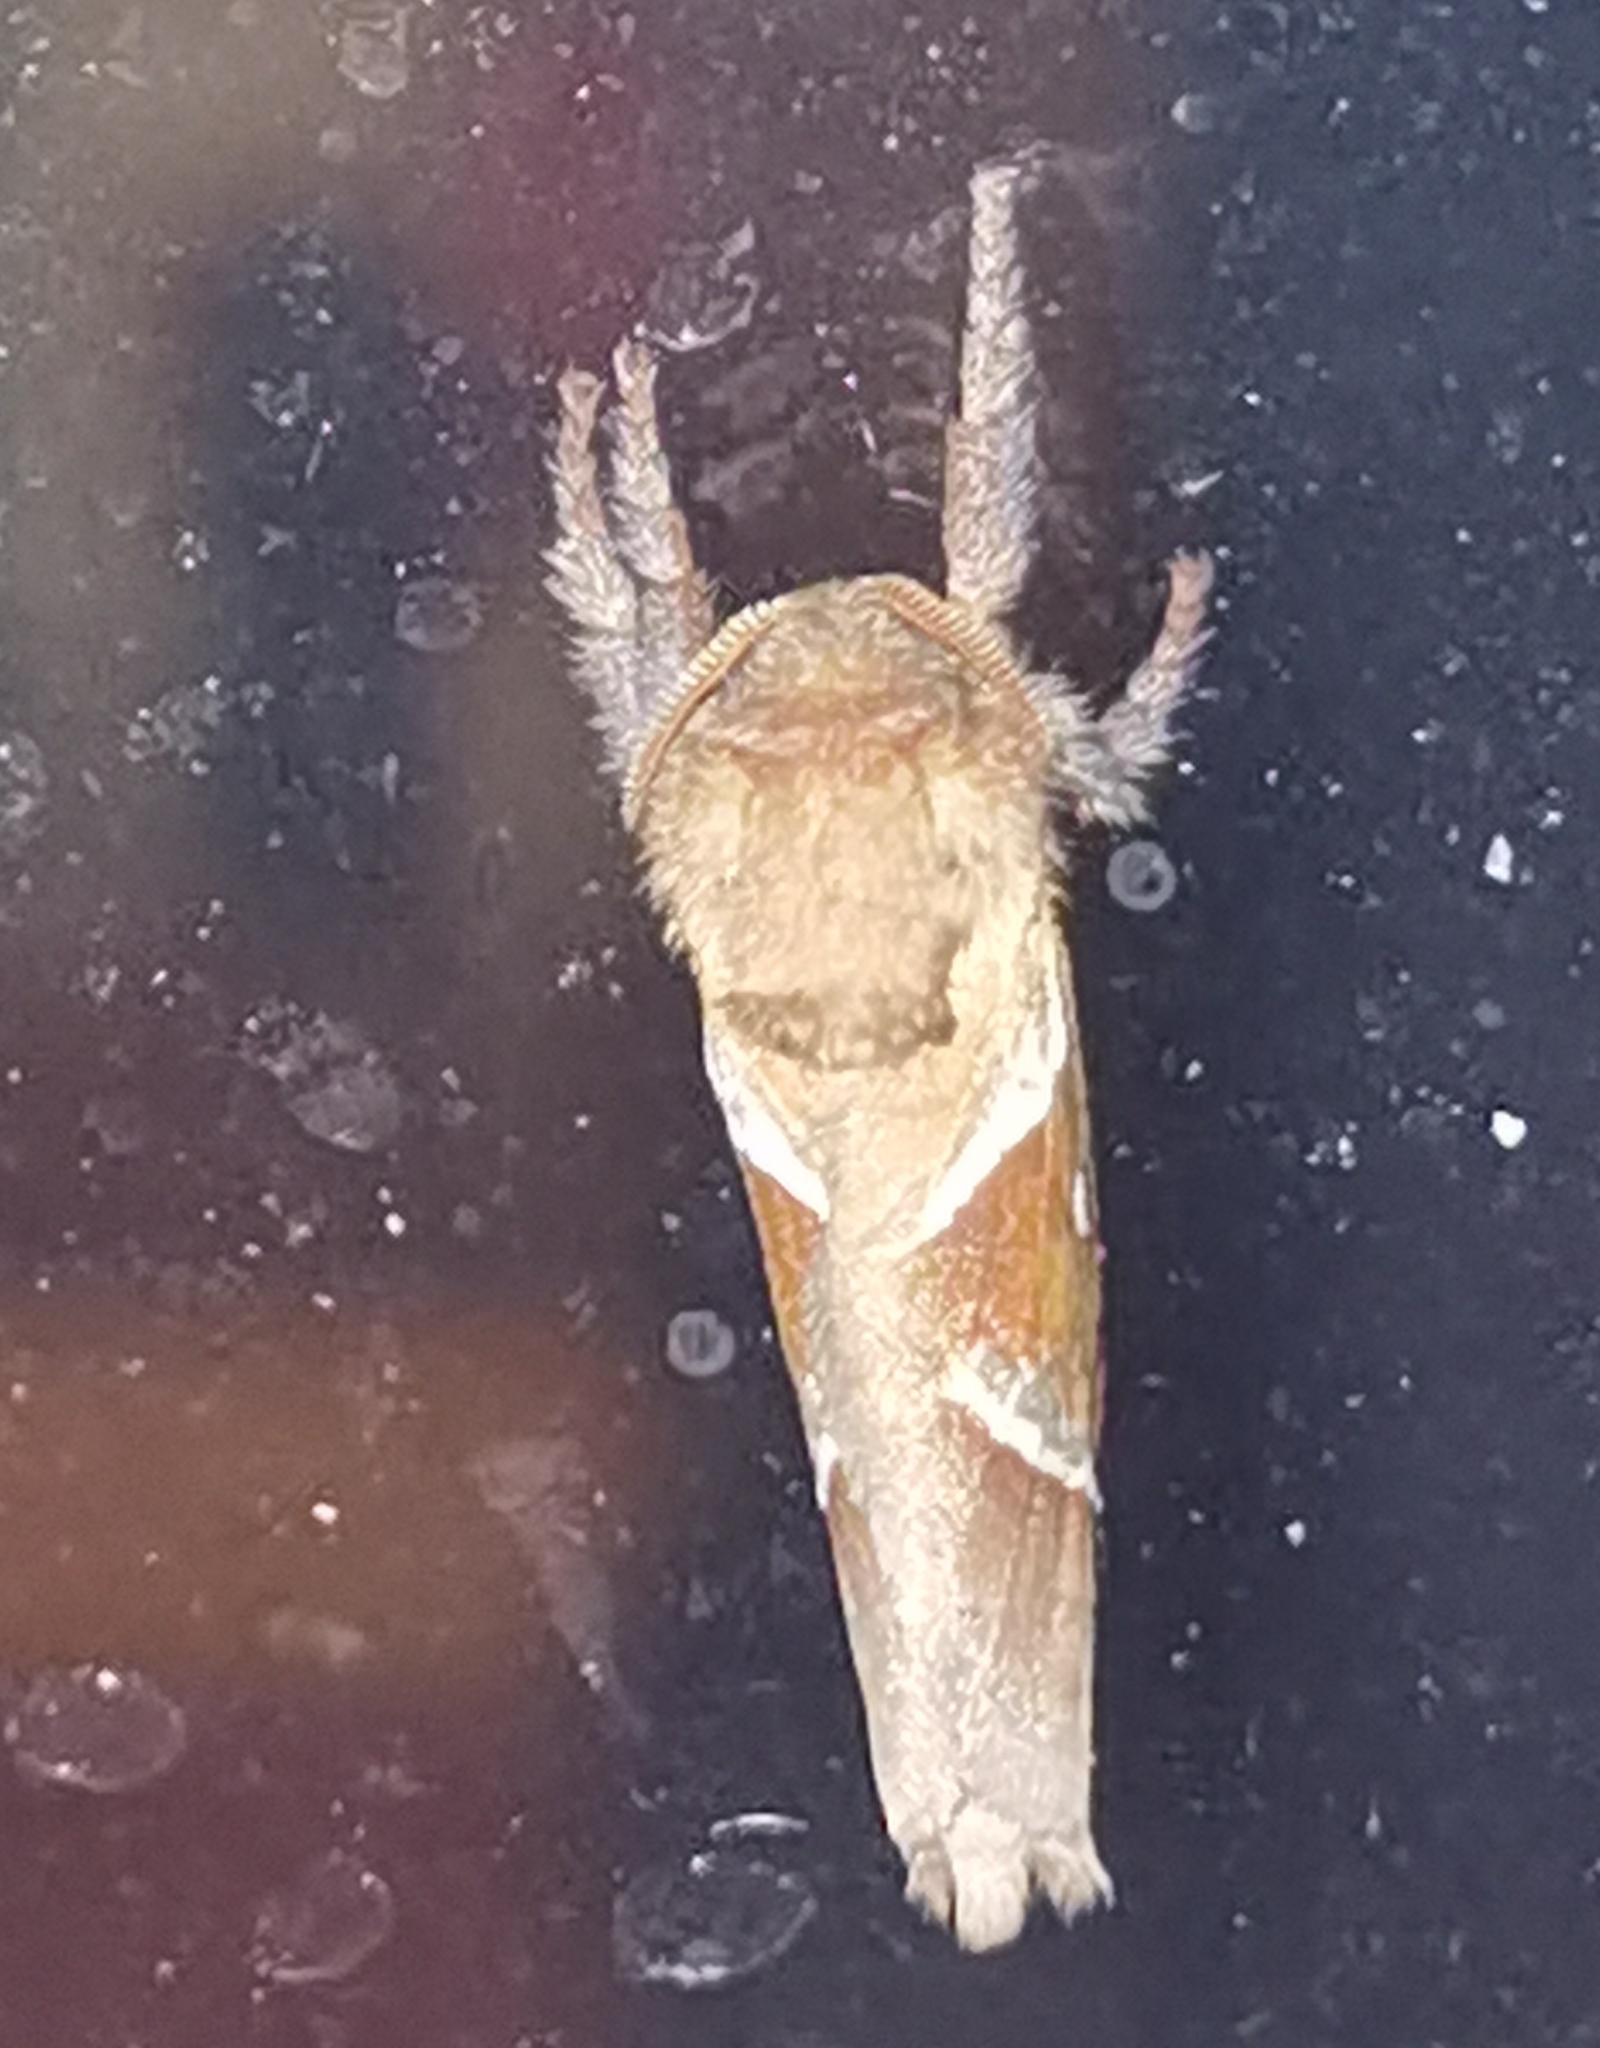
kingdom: Animalia
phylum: Arthropoda
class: Insecta
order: Lepidoptera
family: Hepialidae
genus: Triodia
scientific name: Triodia sylvina
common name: Orange swift
